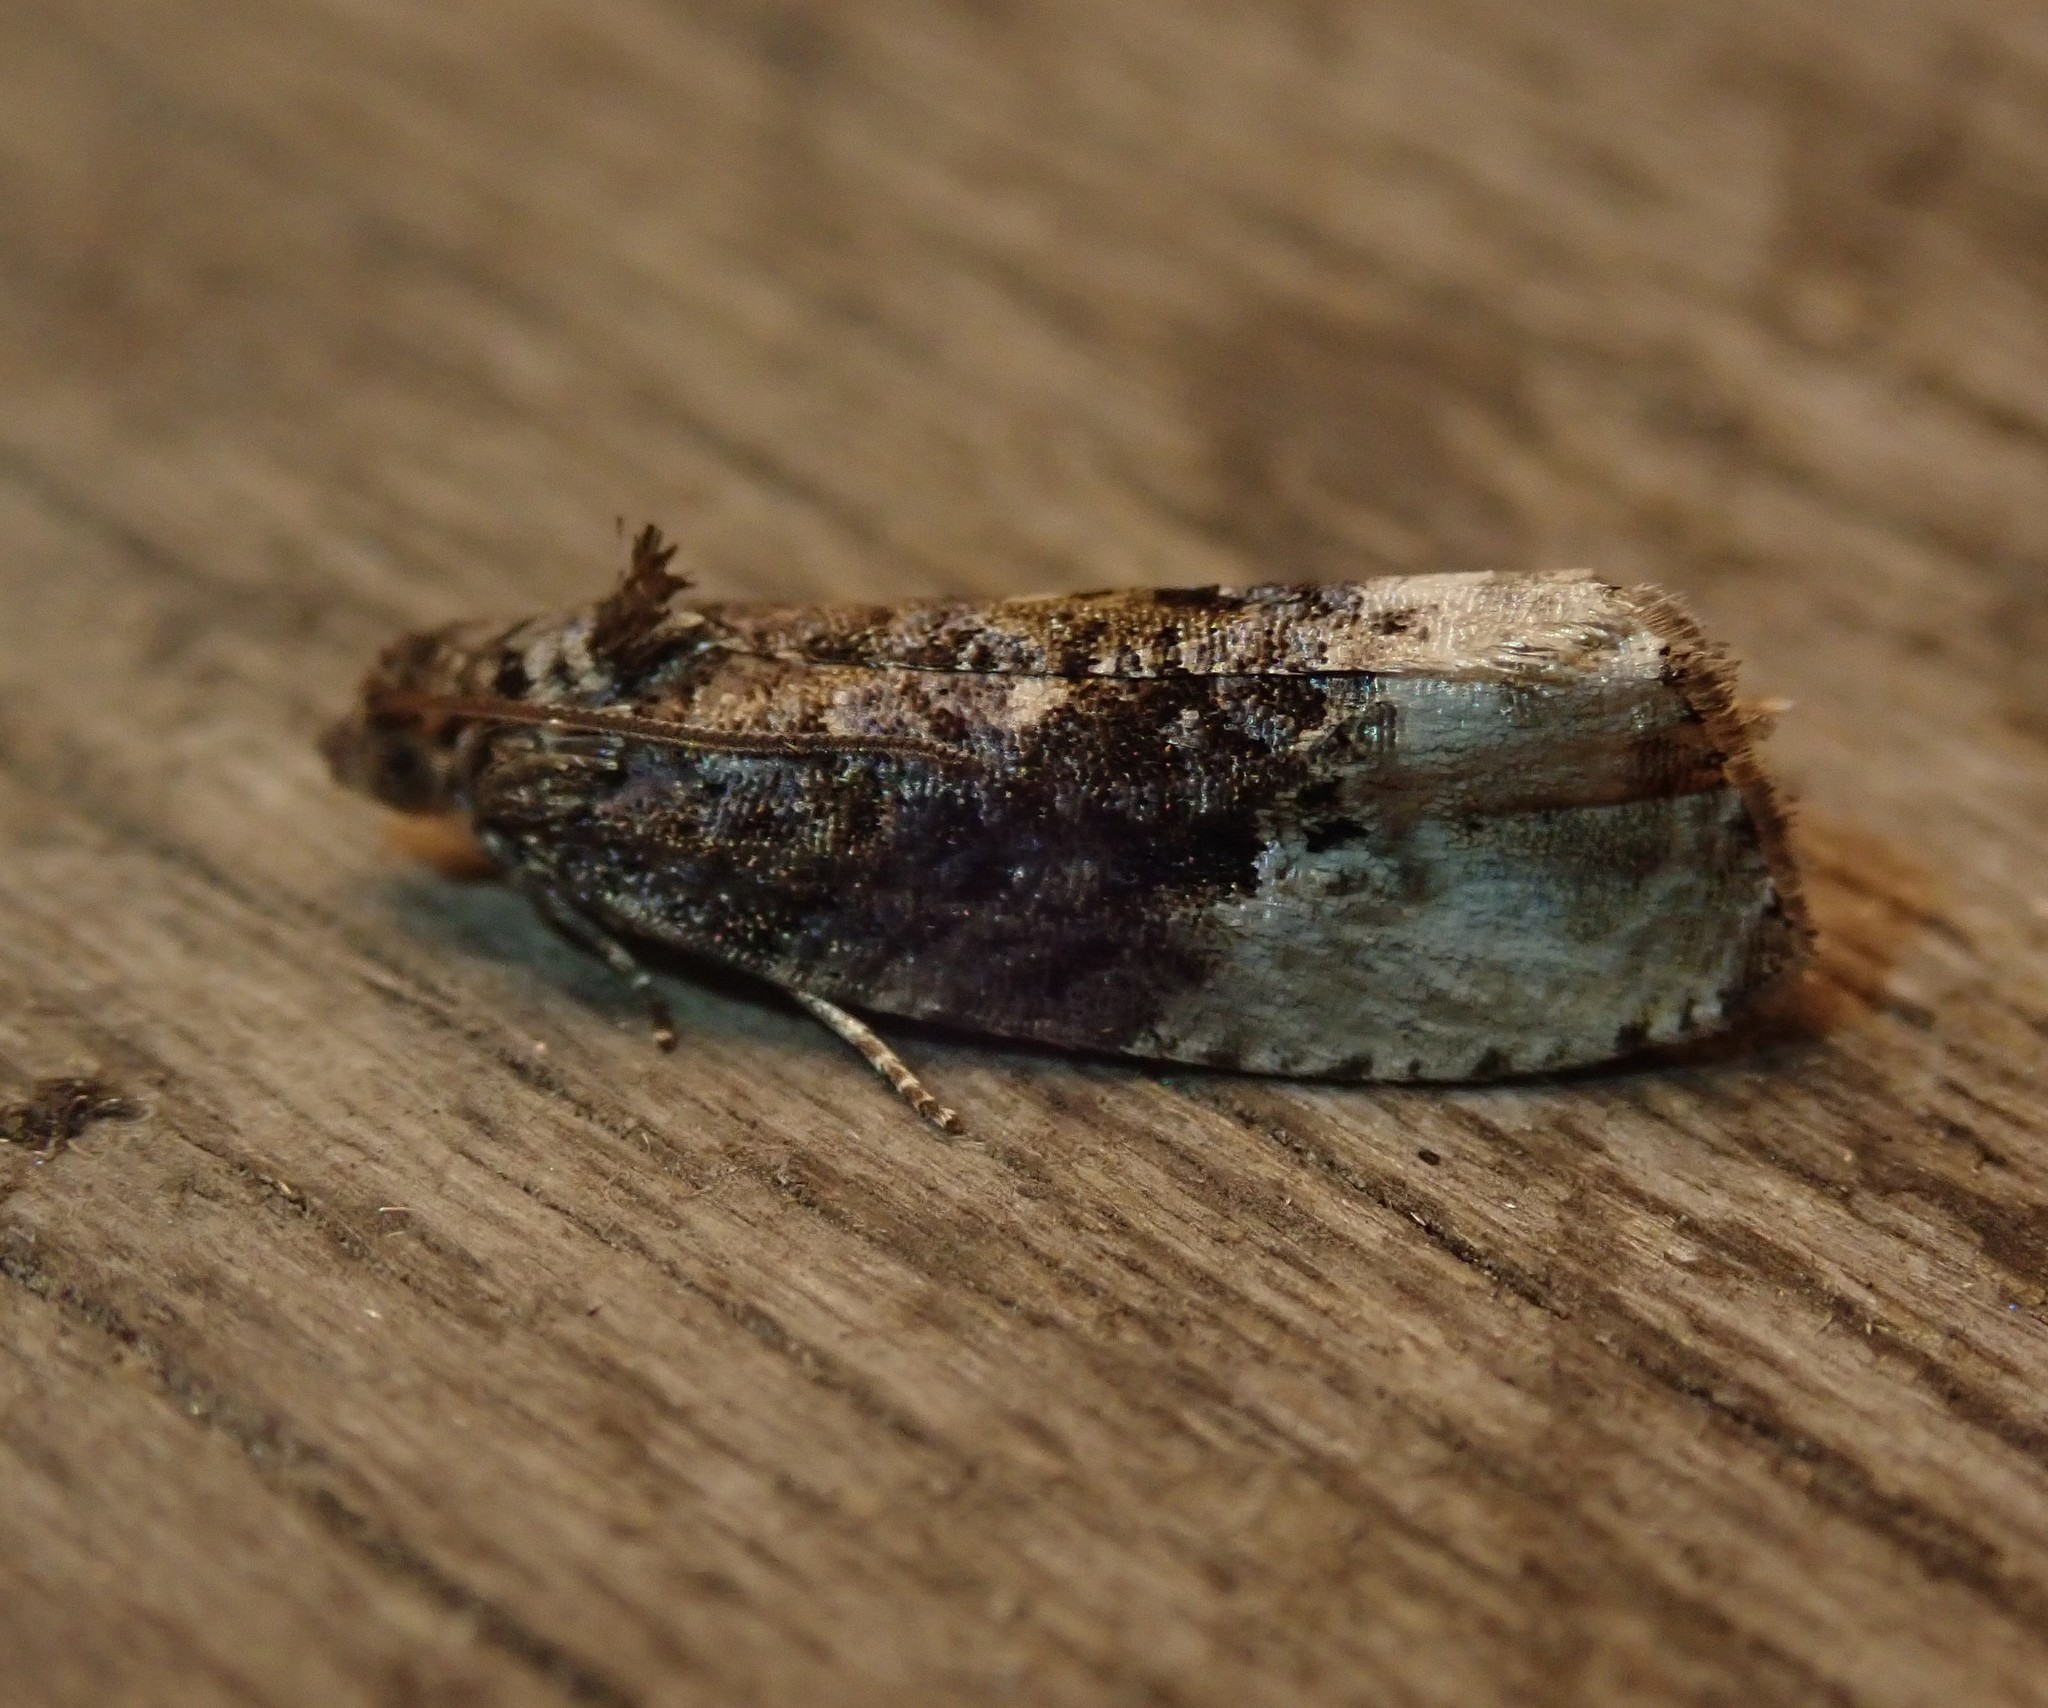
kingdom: Animalia
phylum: Arthropoda
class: Insecta
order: Lepidoptera
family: Tortricidae
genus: Hedya
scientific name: Hedya nubiferana
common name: Marbled orchard tortrix
